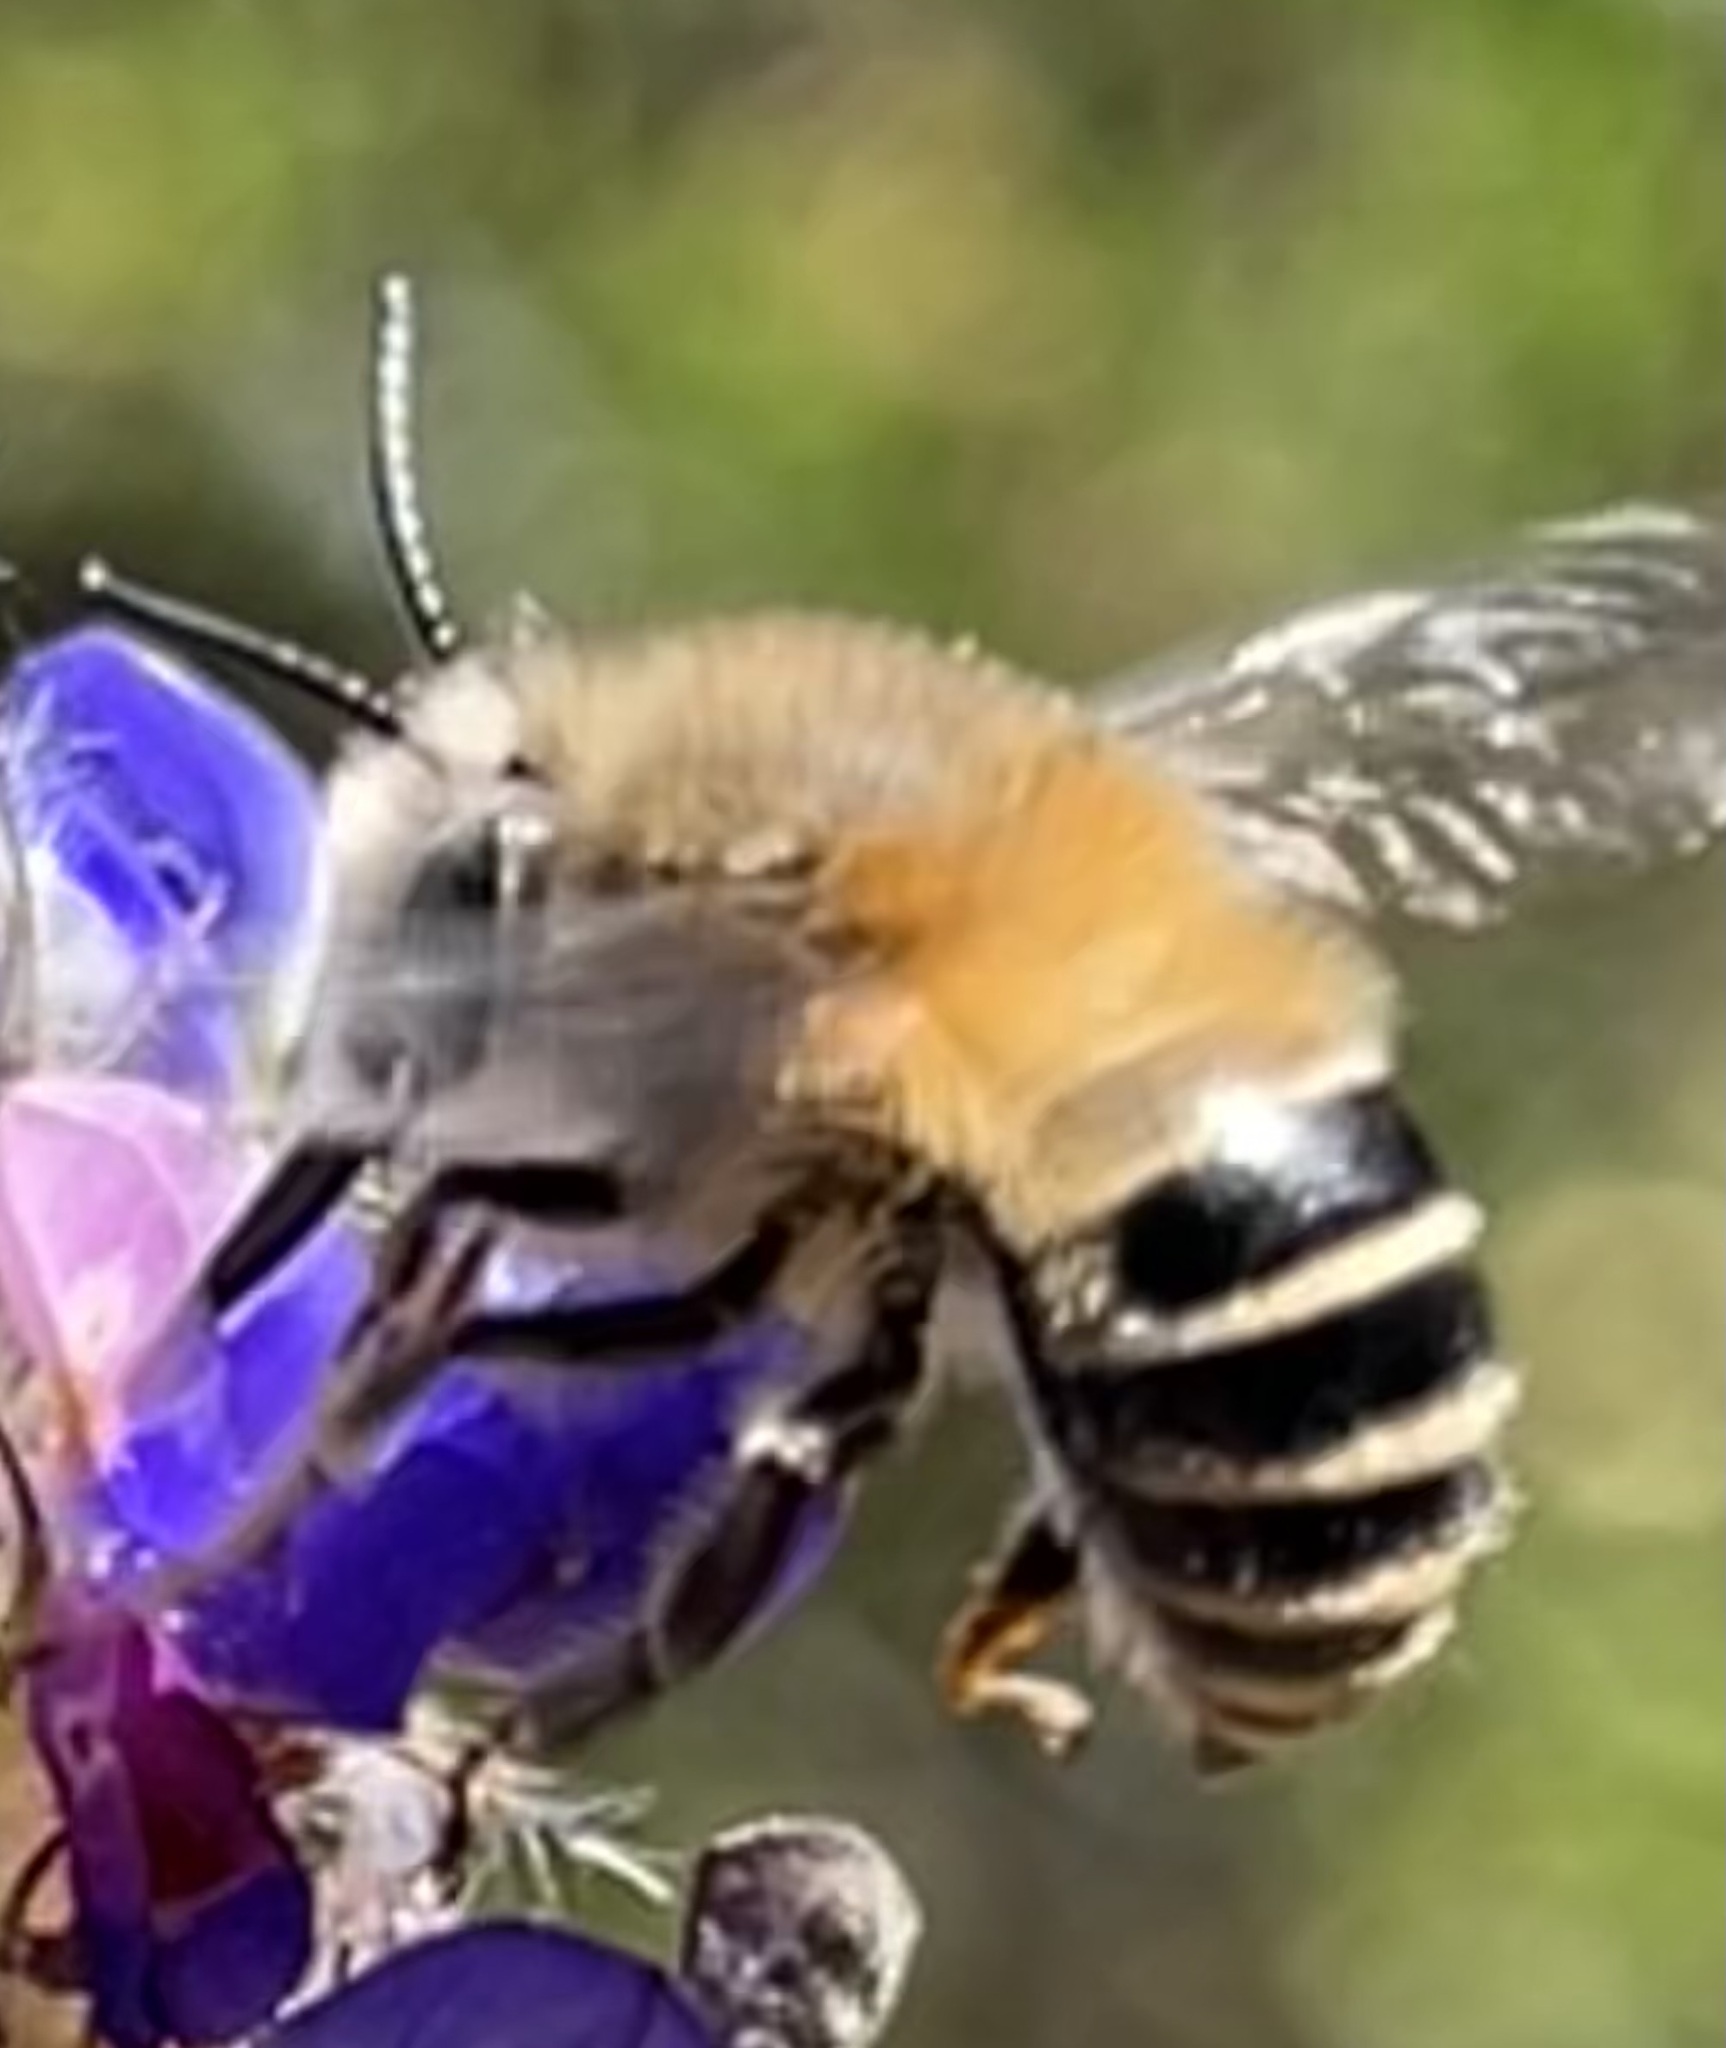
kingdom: Animalia
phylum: Arthropoda
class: Insecta
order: Hymenoptera
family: Apidae
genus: Anthophora
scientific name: Anthophora pilifrons
